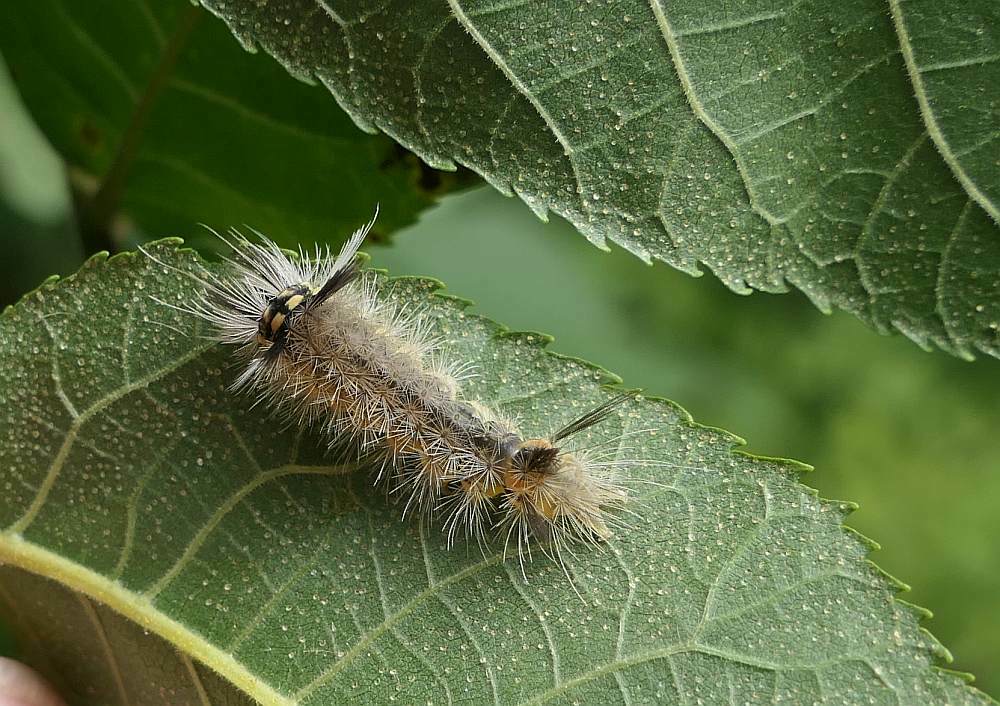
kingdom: Animalia
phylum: Arthropoda
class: Insecta
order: Lepidoptera
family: Erebidae
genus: Halysidota
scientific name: Halysidota tessellaris
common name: Banded tussock moth
